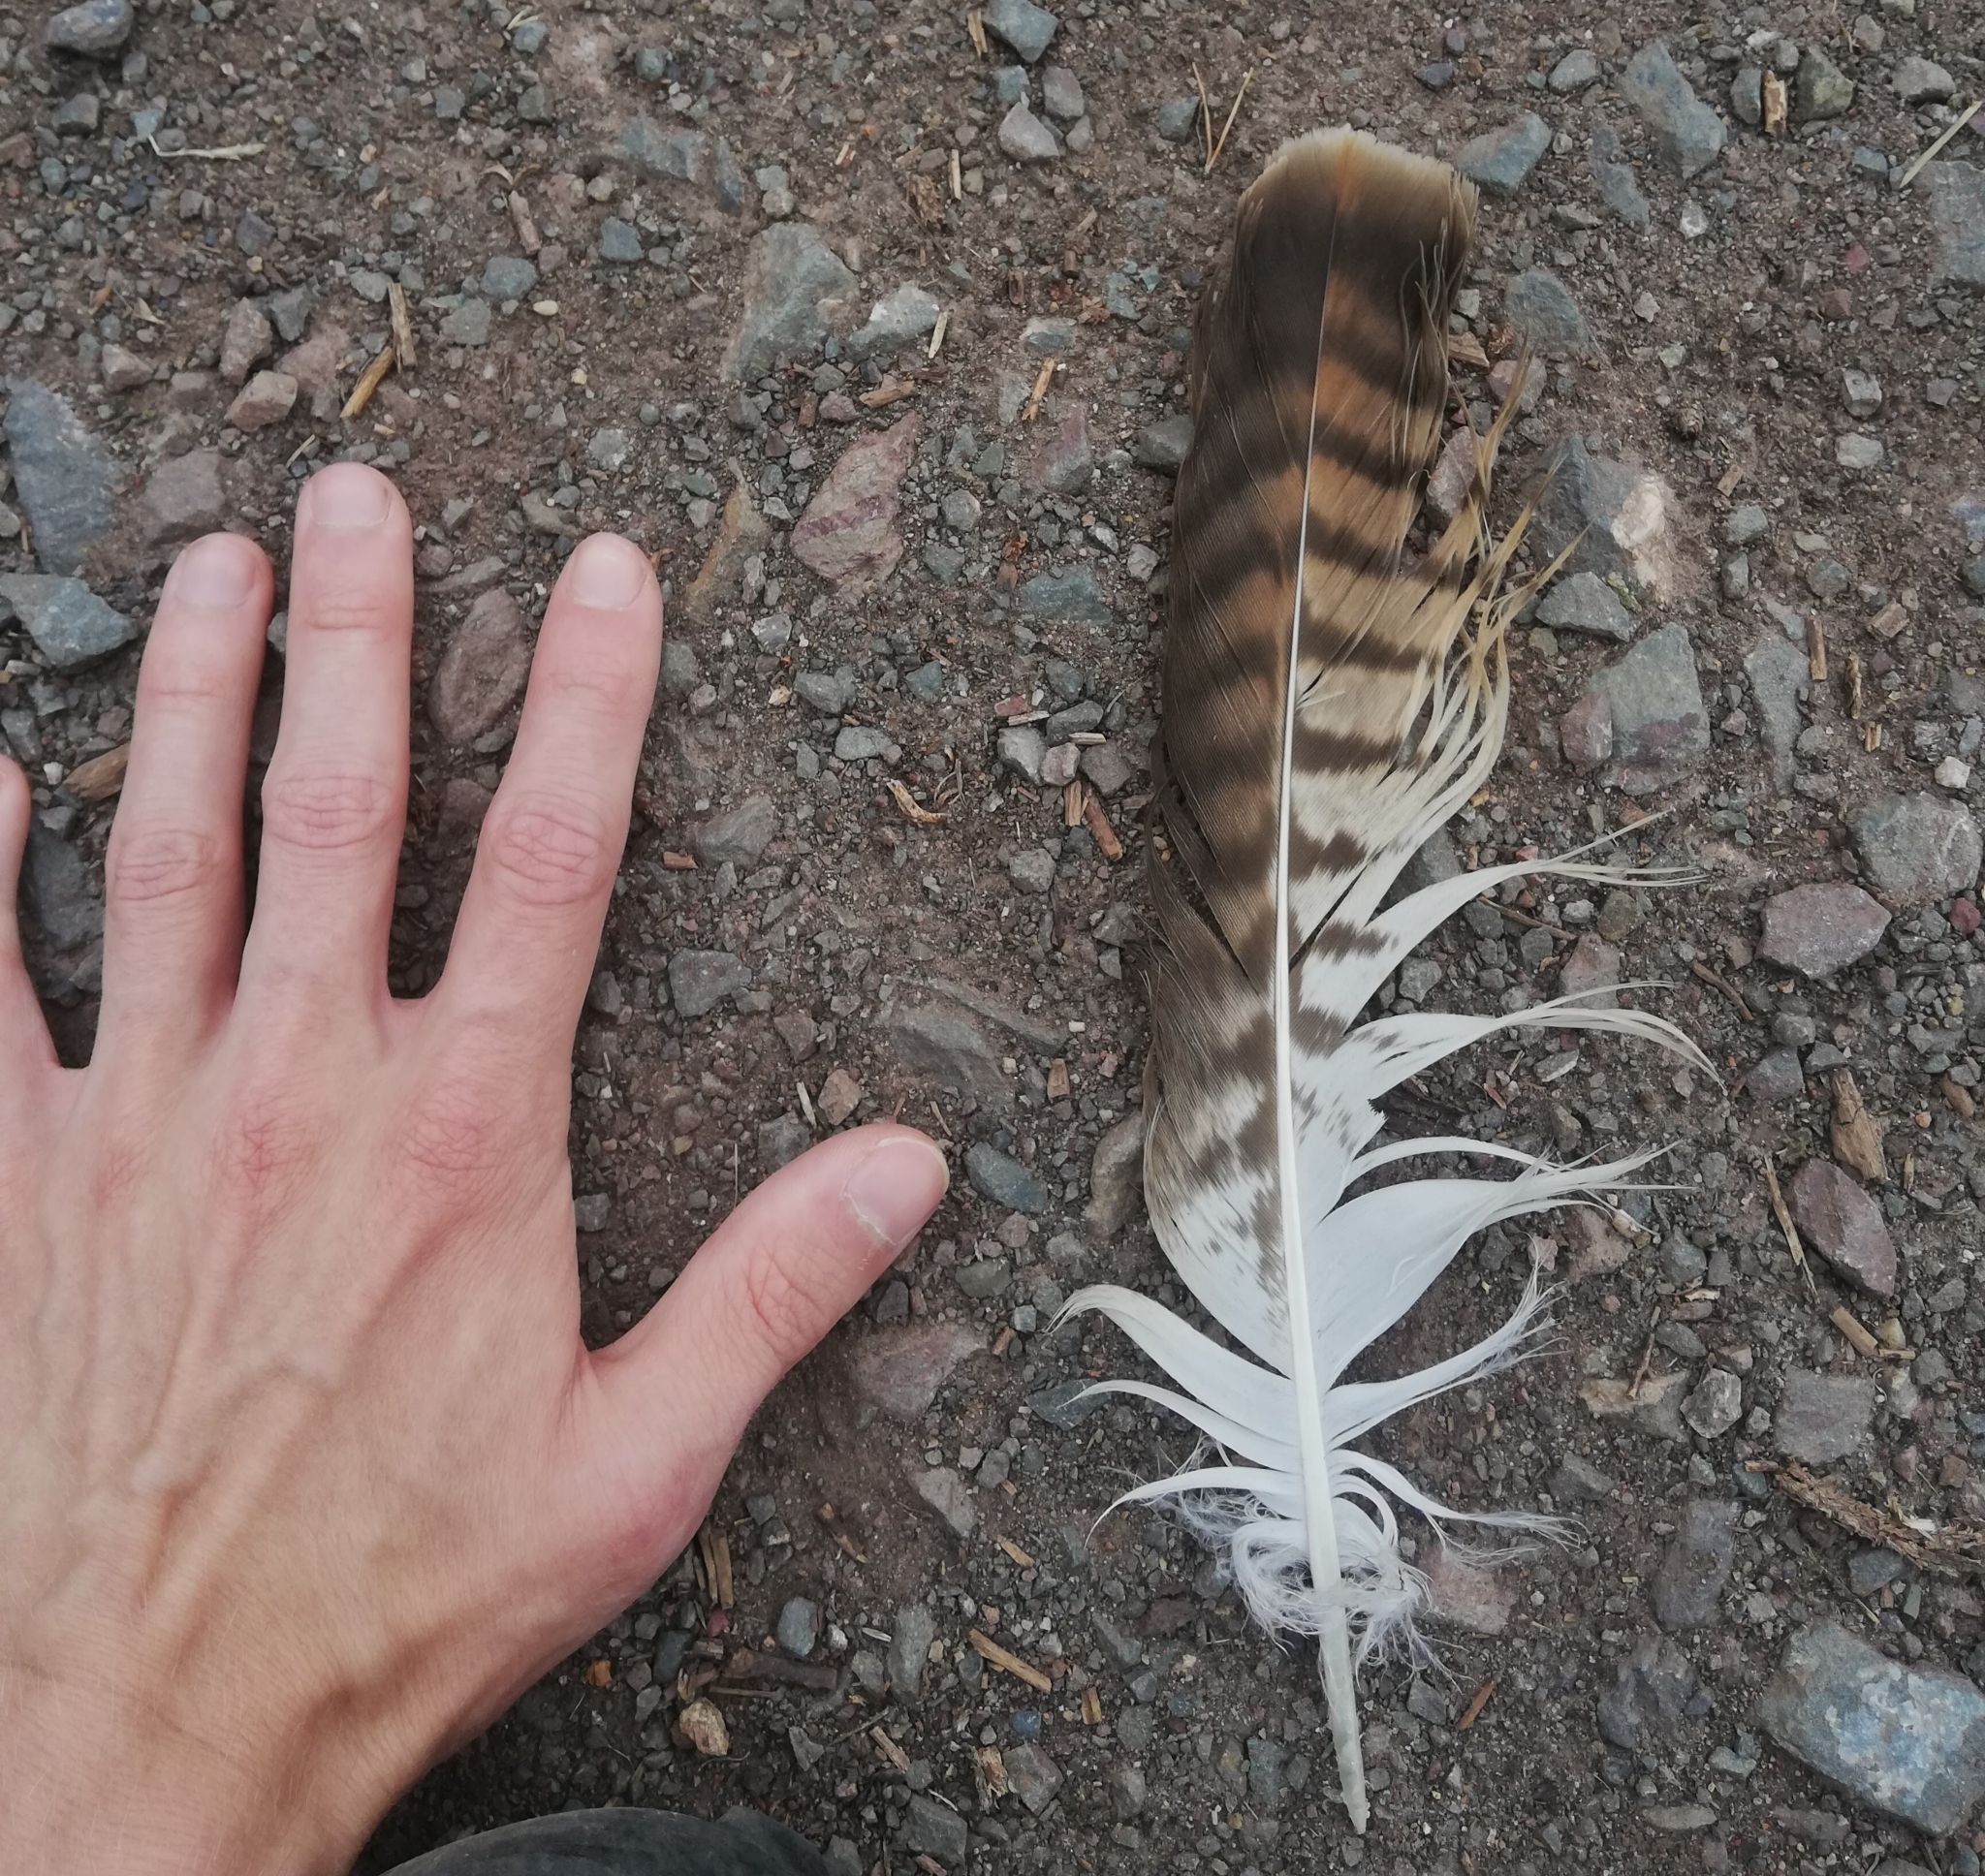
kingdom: Animalia
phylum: Chordata
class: Aves
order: Accipitriformes
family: Accipitridae
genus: Buteo
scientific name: Buteo buteo
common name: Common buzzard
